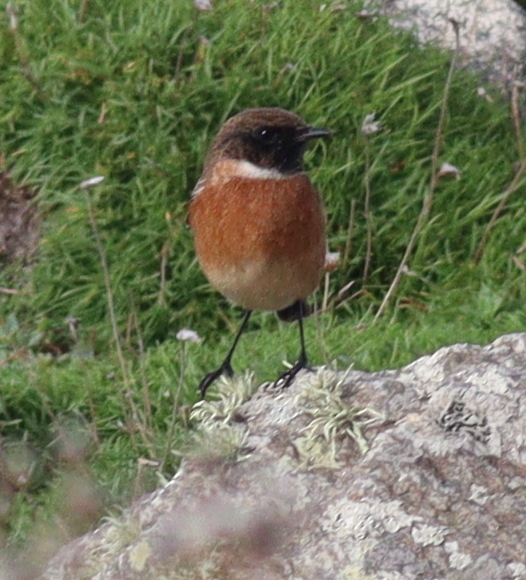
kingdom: Animalia
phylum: Chordata
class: Aves
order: Passeriformes
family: Muscicapidae
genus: Saxicola
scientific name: Saxicola rubicola
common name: European stonechat
